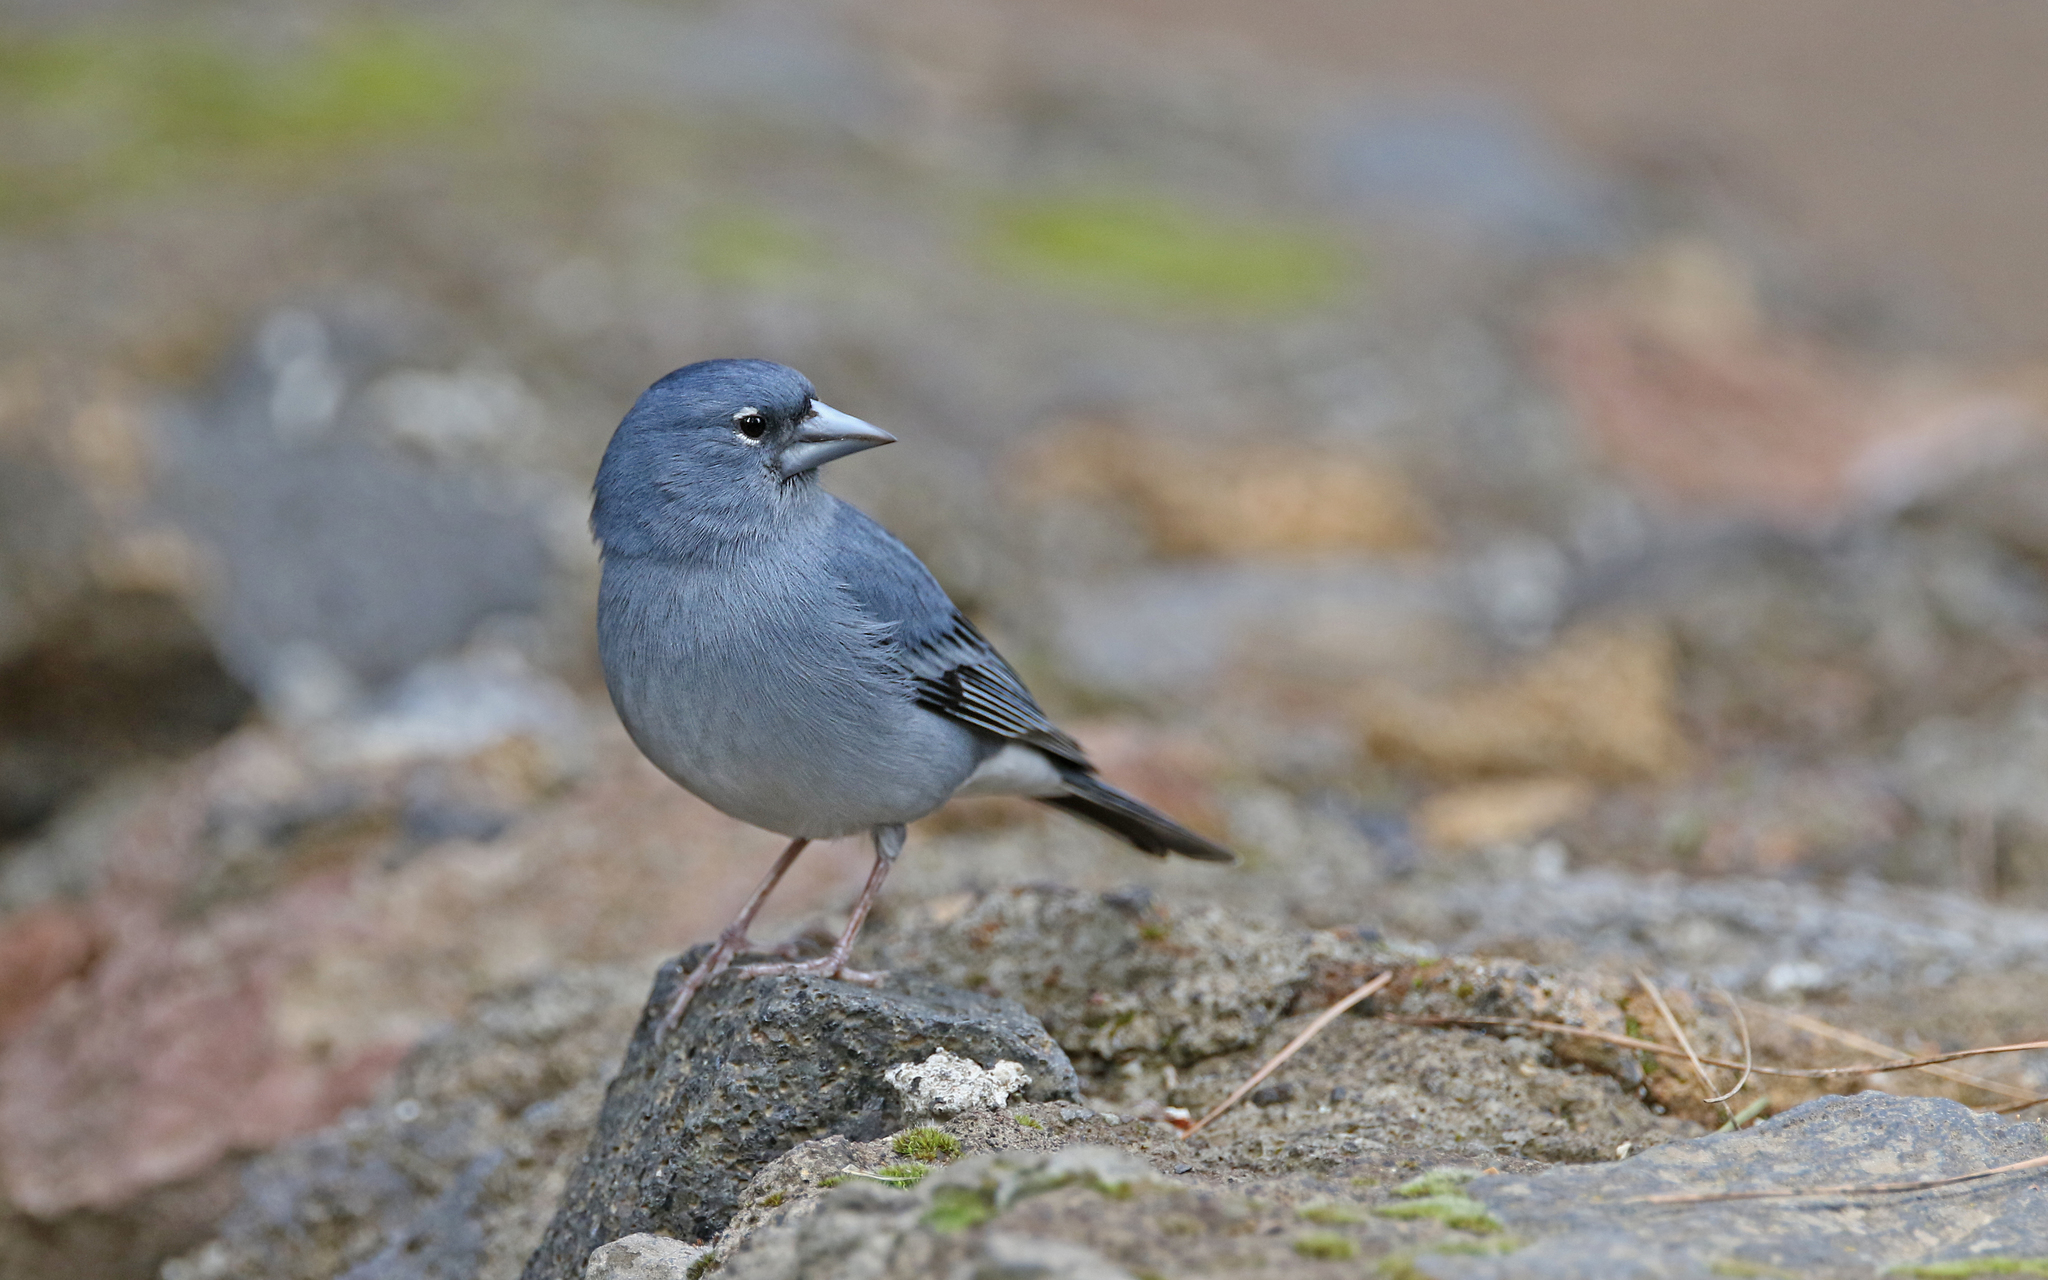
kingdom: Animalia
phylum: Chordata
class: Aves
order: Passeriformes
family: Fringillidae
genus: Fringilla
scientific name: Fringilla teydea
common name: Blue chaffinch
